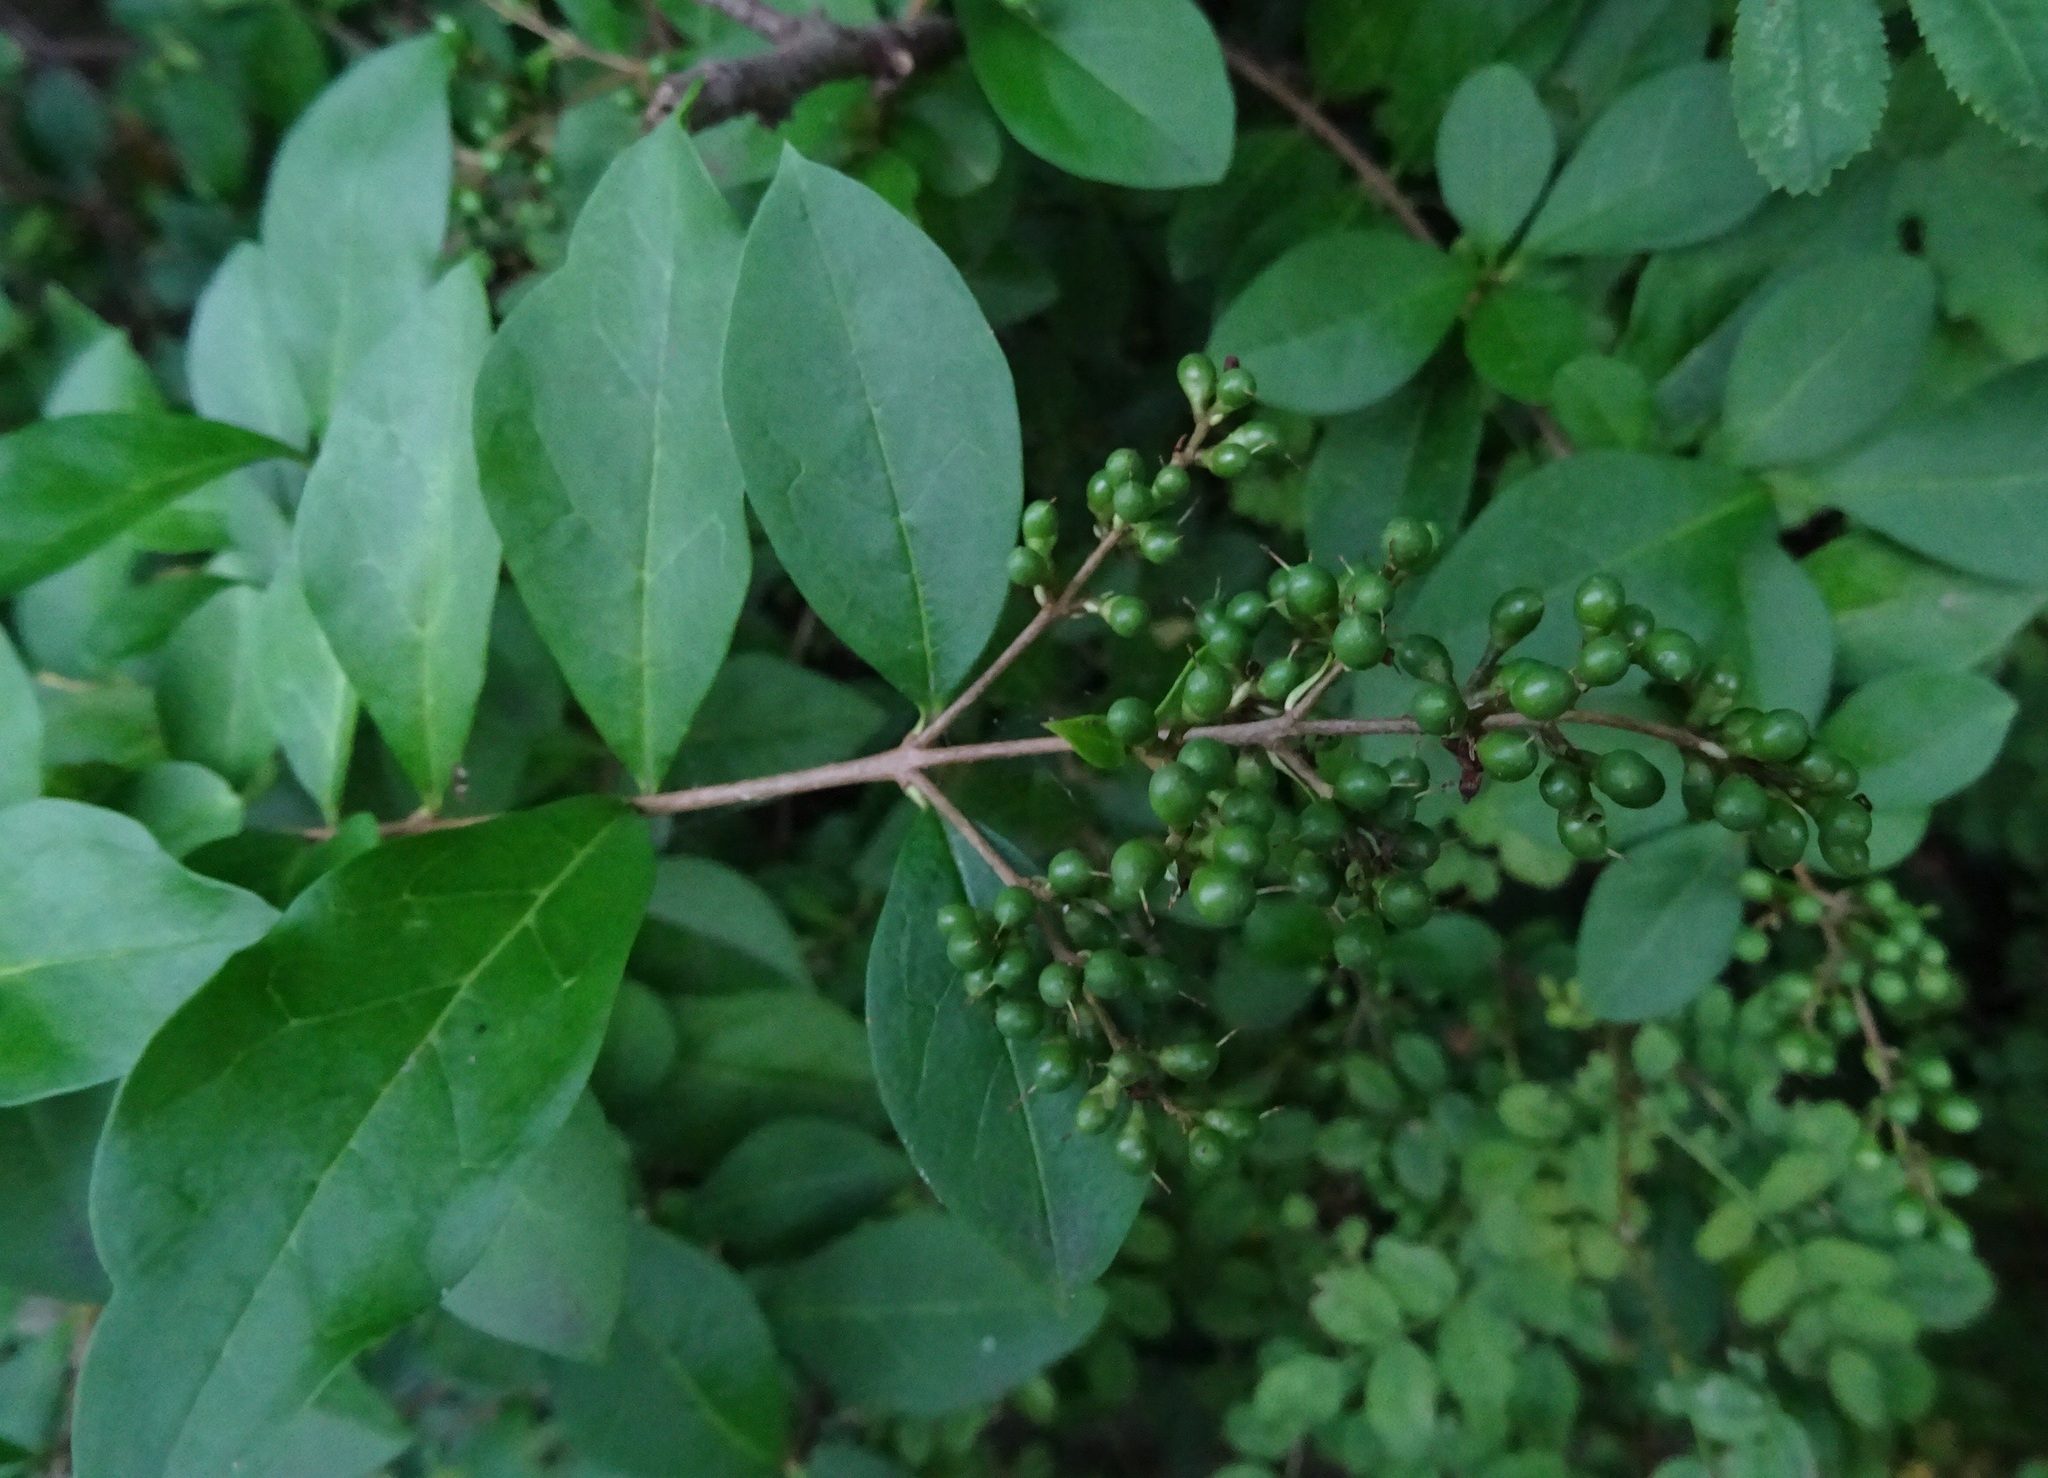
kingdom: Plantae
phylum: Tracheophyta
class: Magnoliopsida
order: Lamiales
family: Oleaceae
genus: Ligustrum
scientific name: Ligustrum ovalifolium
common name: California privet
